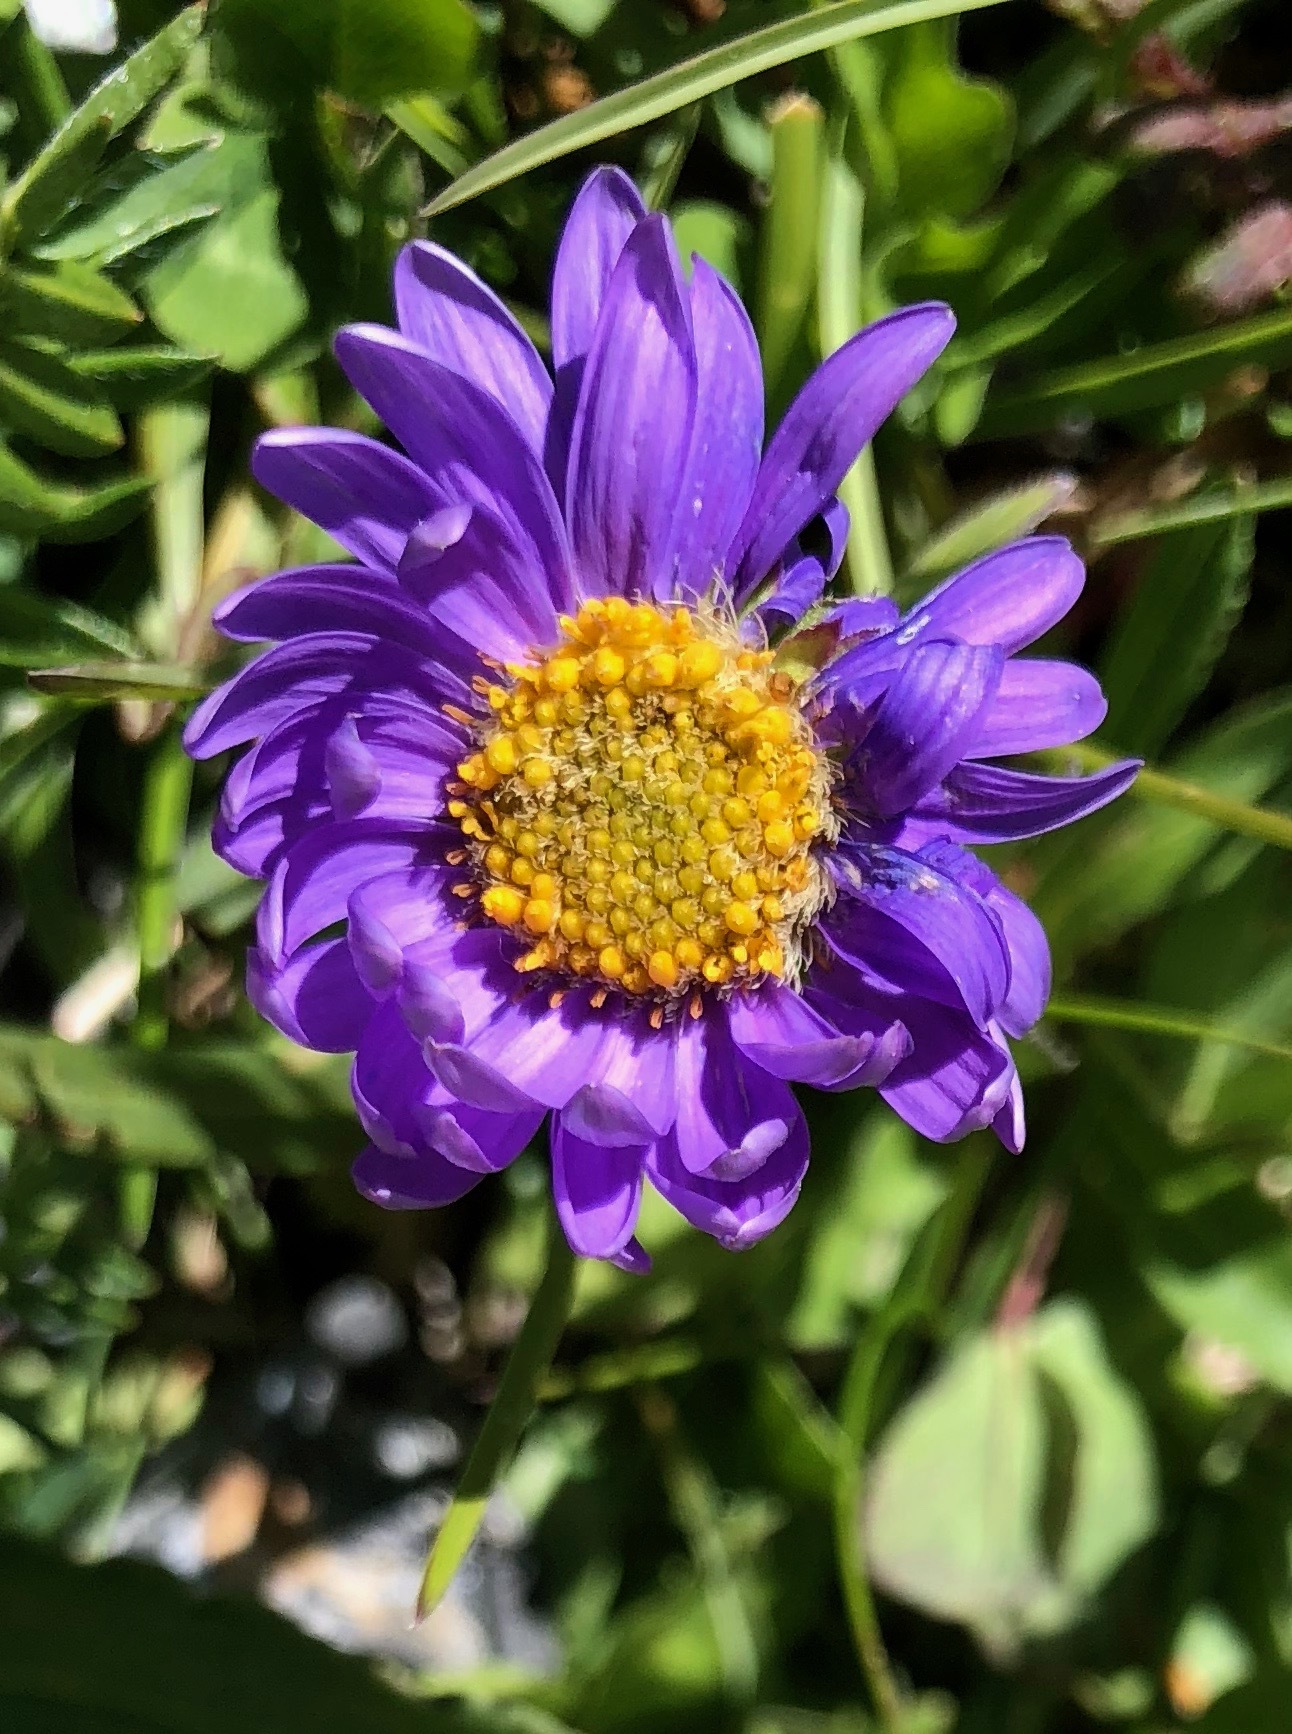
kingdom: Plantae
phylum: Tracheophyta
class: Magnoliopsida
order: Asterales
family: Asteraceae
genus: Aster
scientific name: Aster alpinus
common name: Alpine aster
